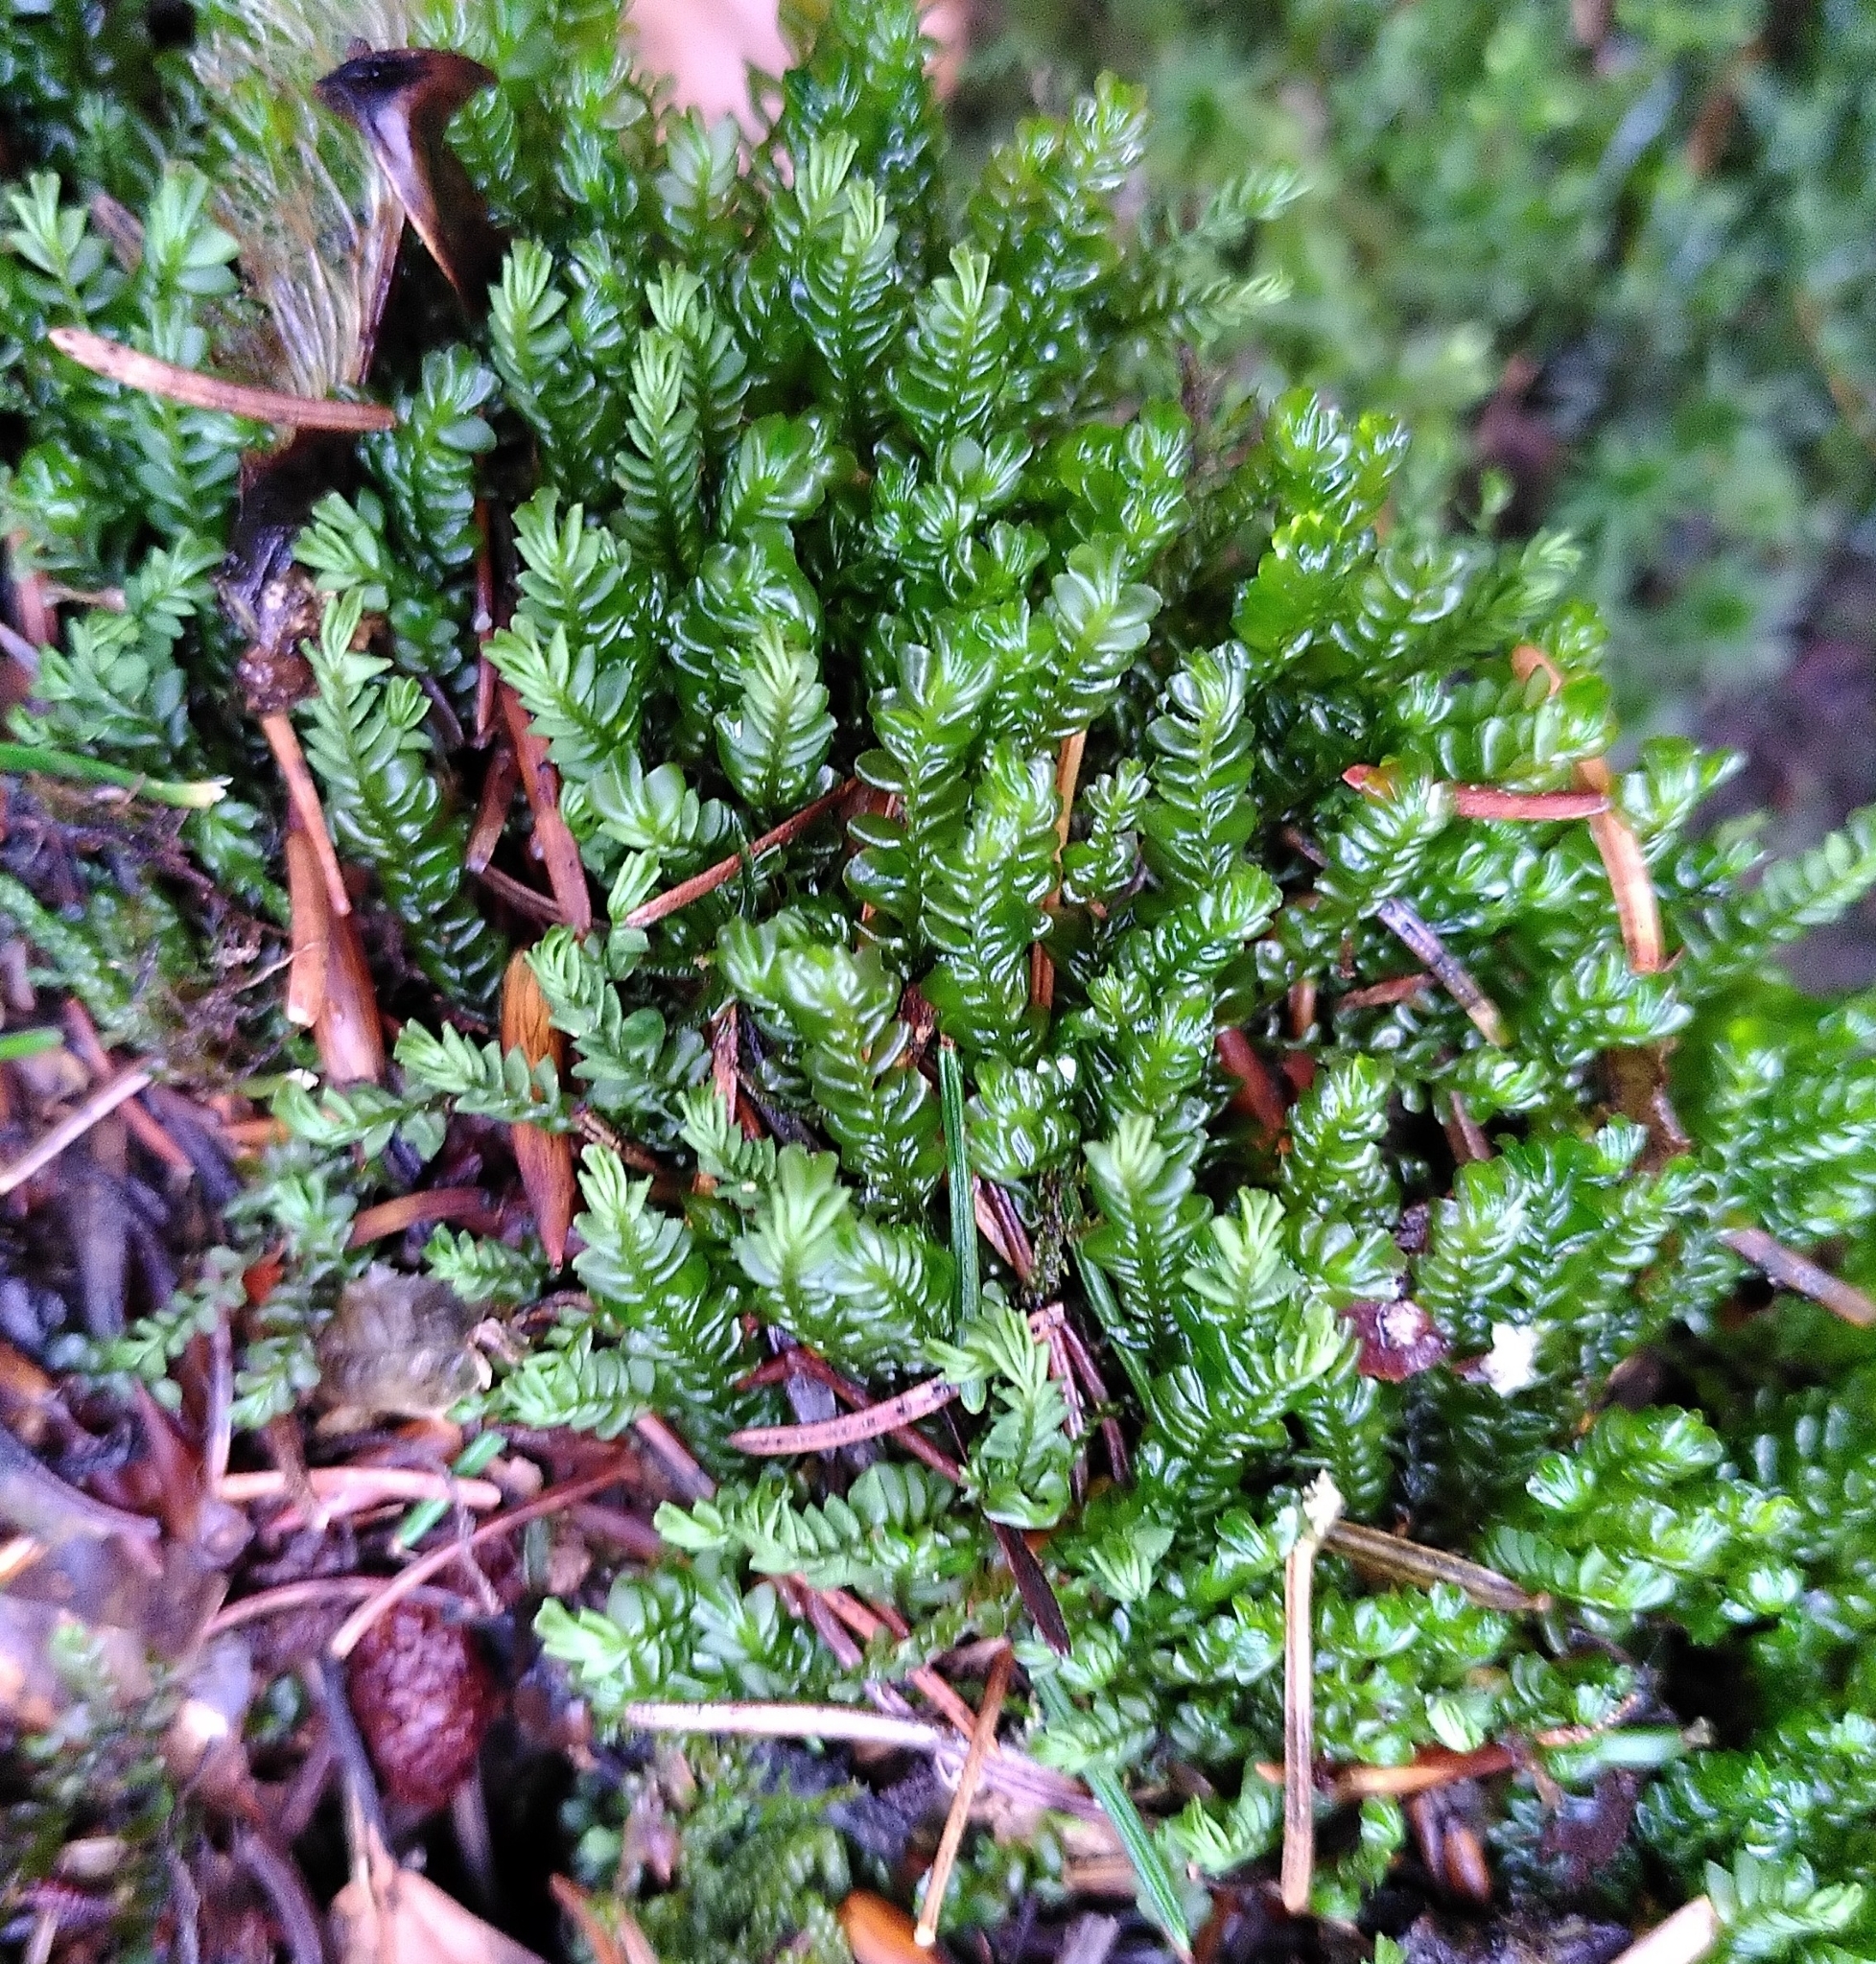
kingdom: Plantae
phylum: Marchantiophyta
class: Jungermanniopsida
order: Jungermanniales
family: Plagiochilaceae
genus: Plagiochila
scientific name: Plagiochila asplenioides
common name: Greater featherwort
